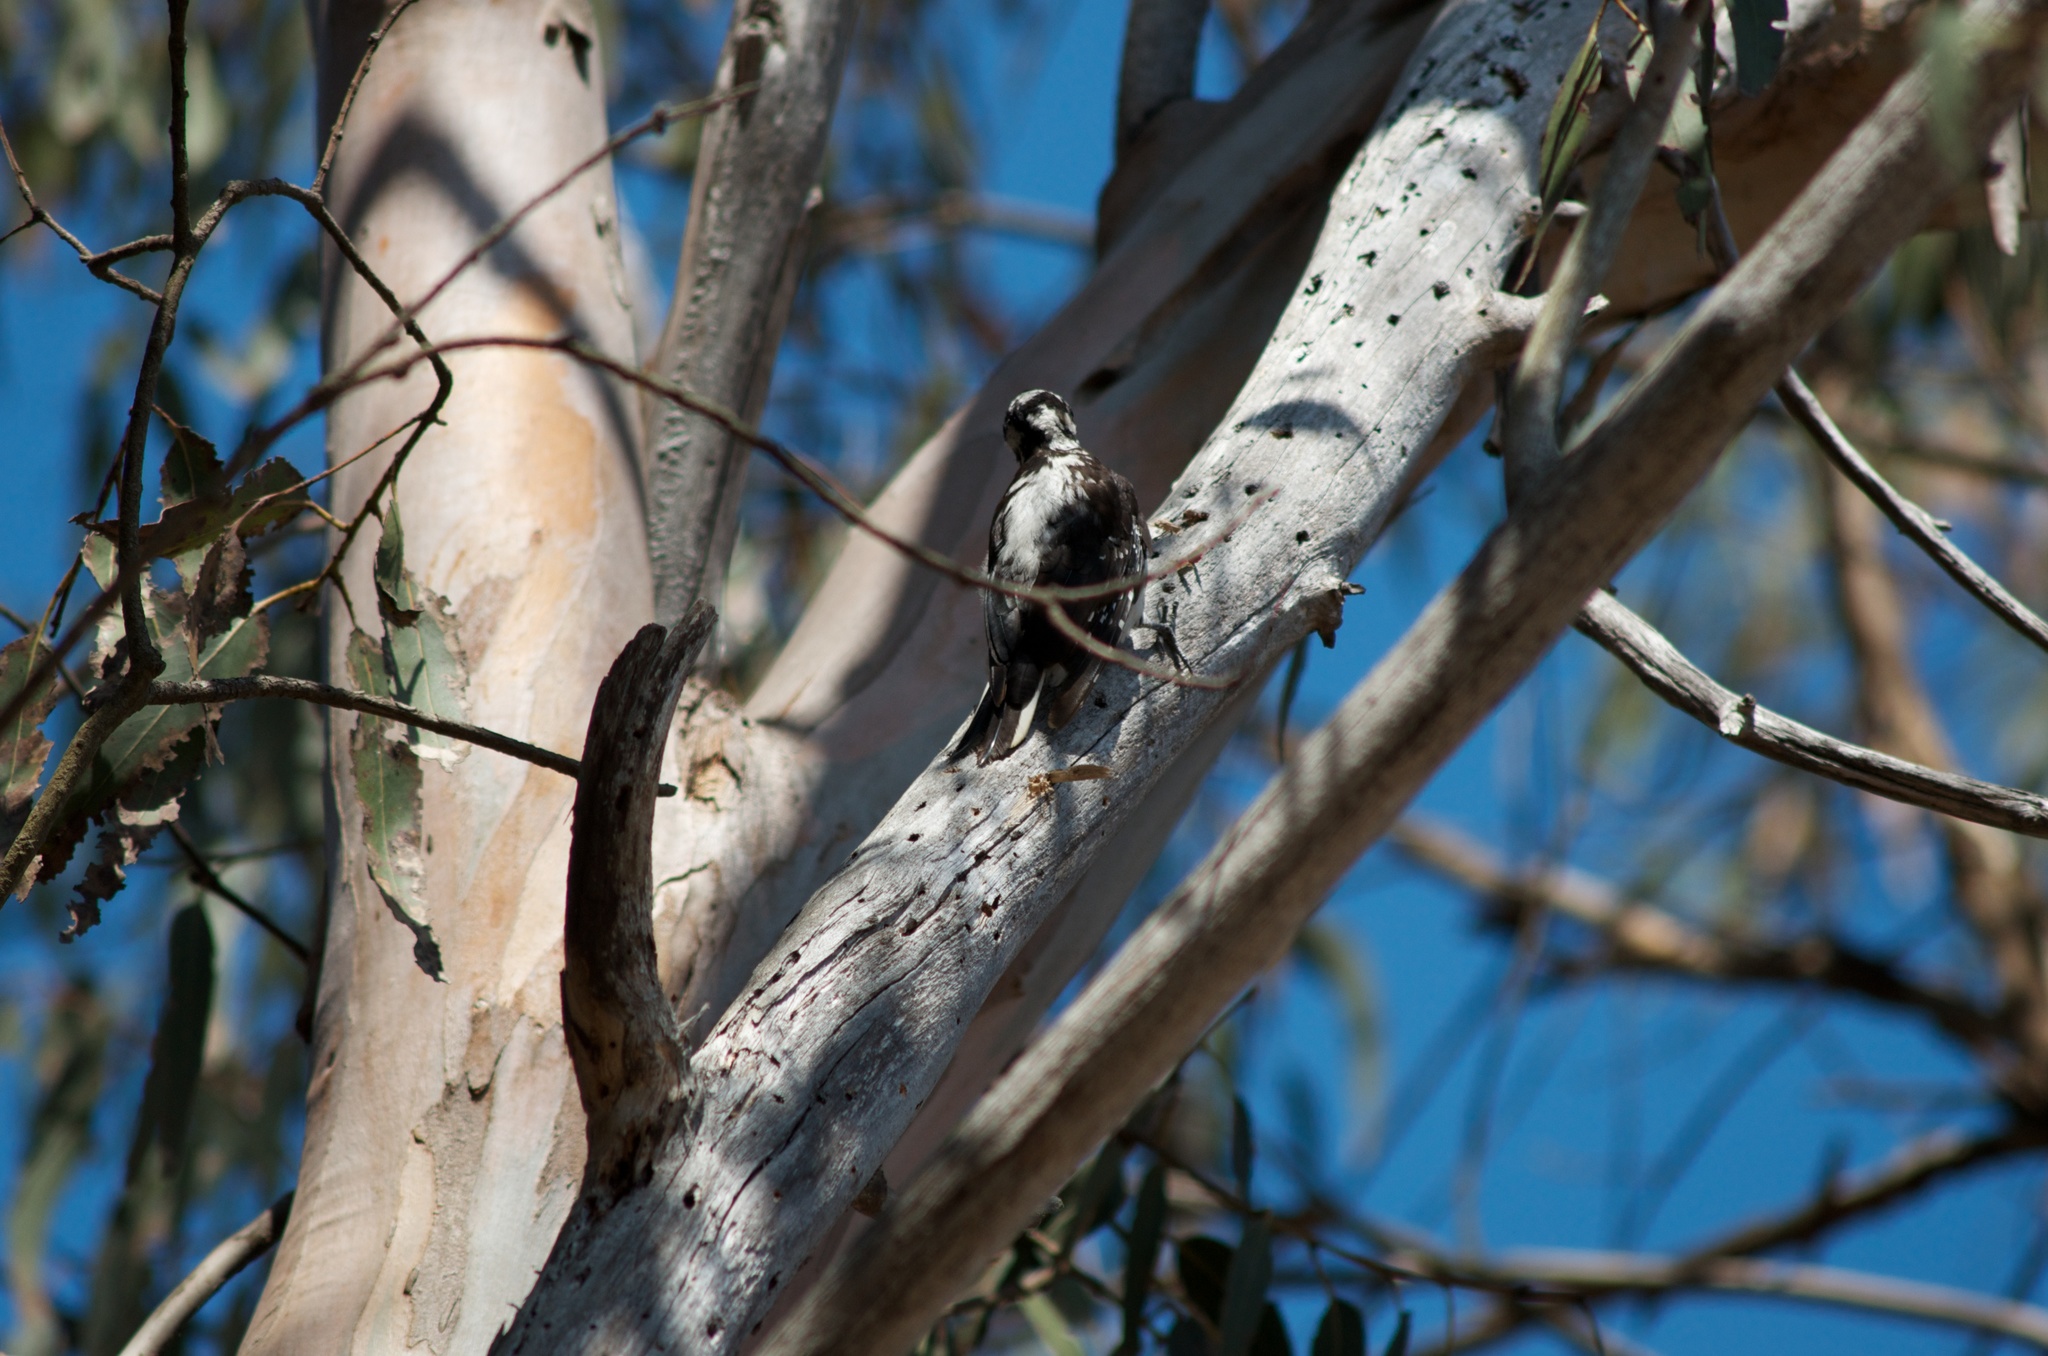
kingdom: Animalia
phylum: Chordata
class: Aves
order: Piciformes
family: Picidae
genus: Leuconotopicus
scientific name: Leuconotopicus villosus
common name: Hairy woodpecker
